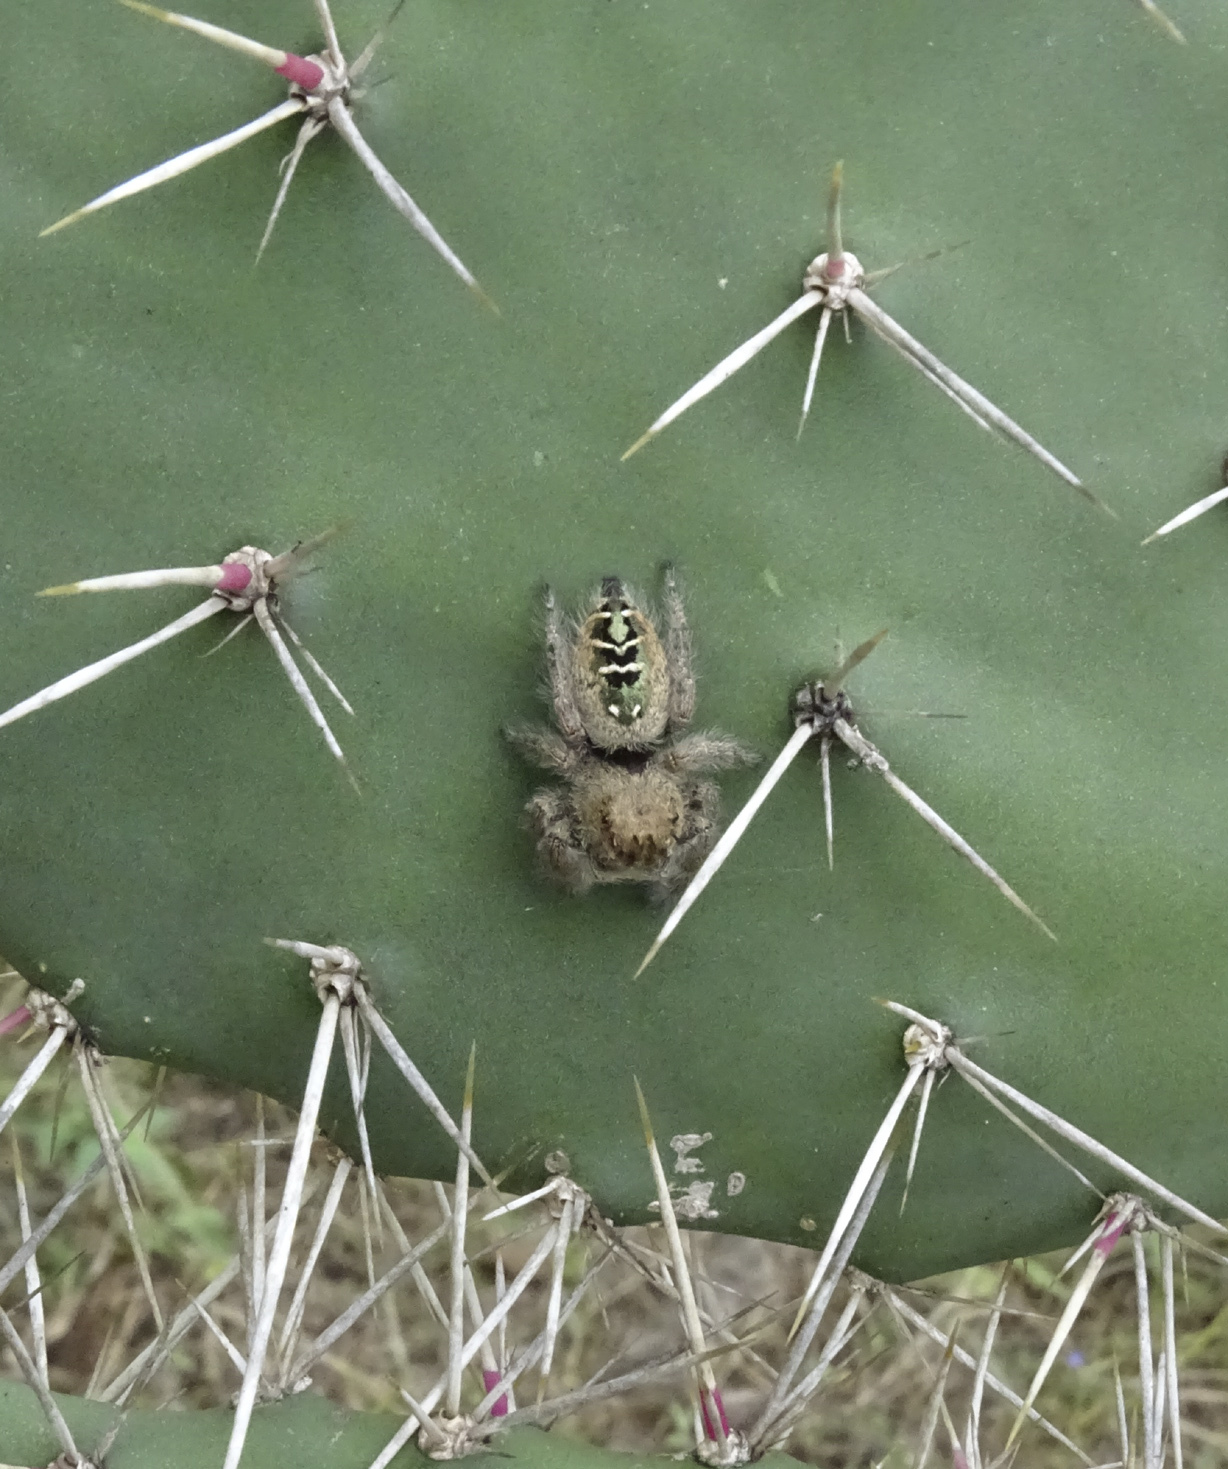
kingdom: Animalia
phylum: Arthropoda
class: Arachnida
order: Araneae
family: Salticidae
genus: Phidippus
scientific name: Phidippus dianthus
